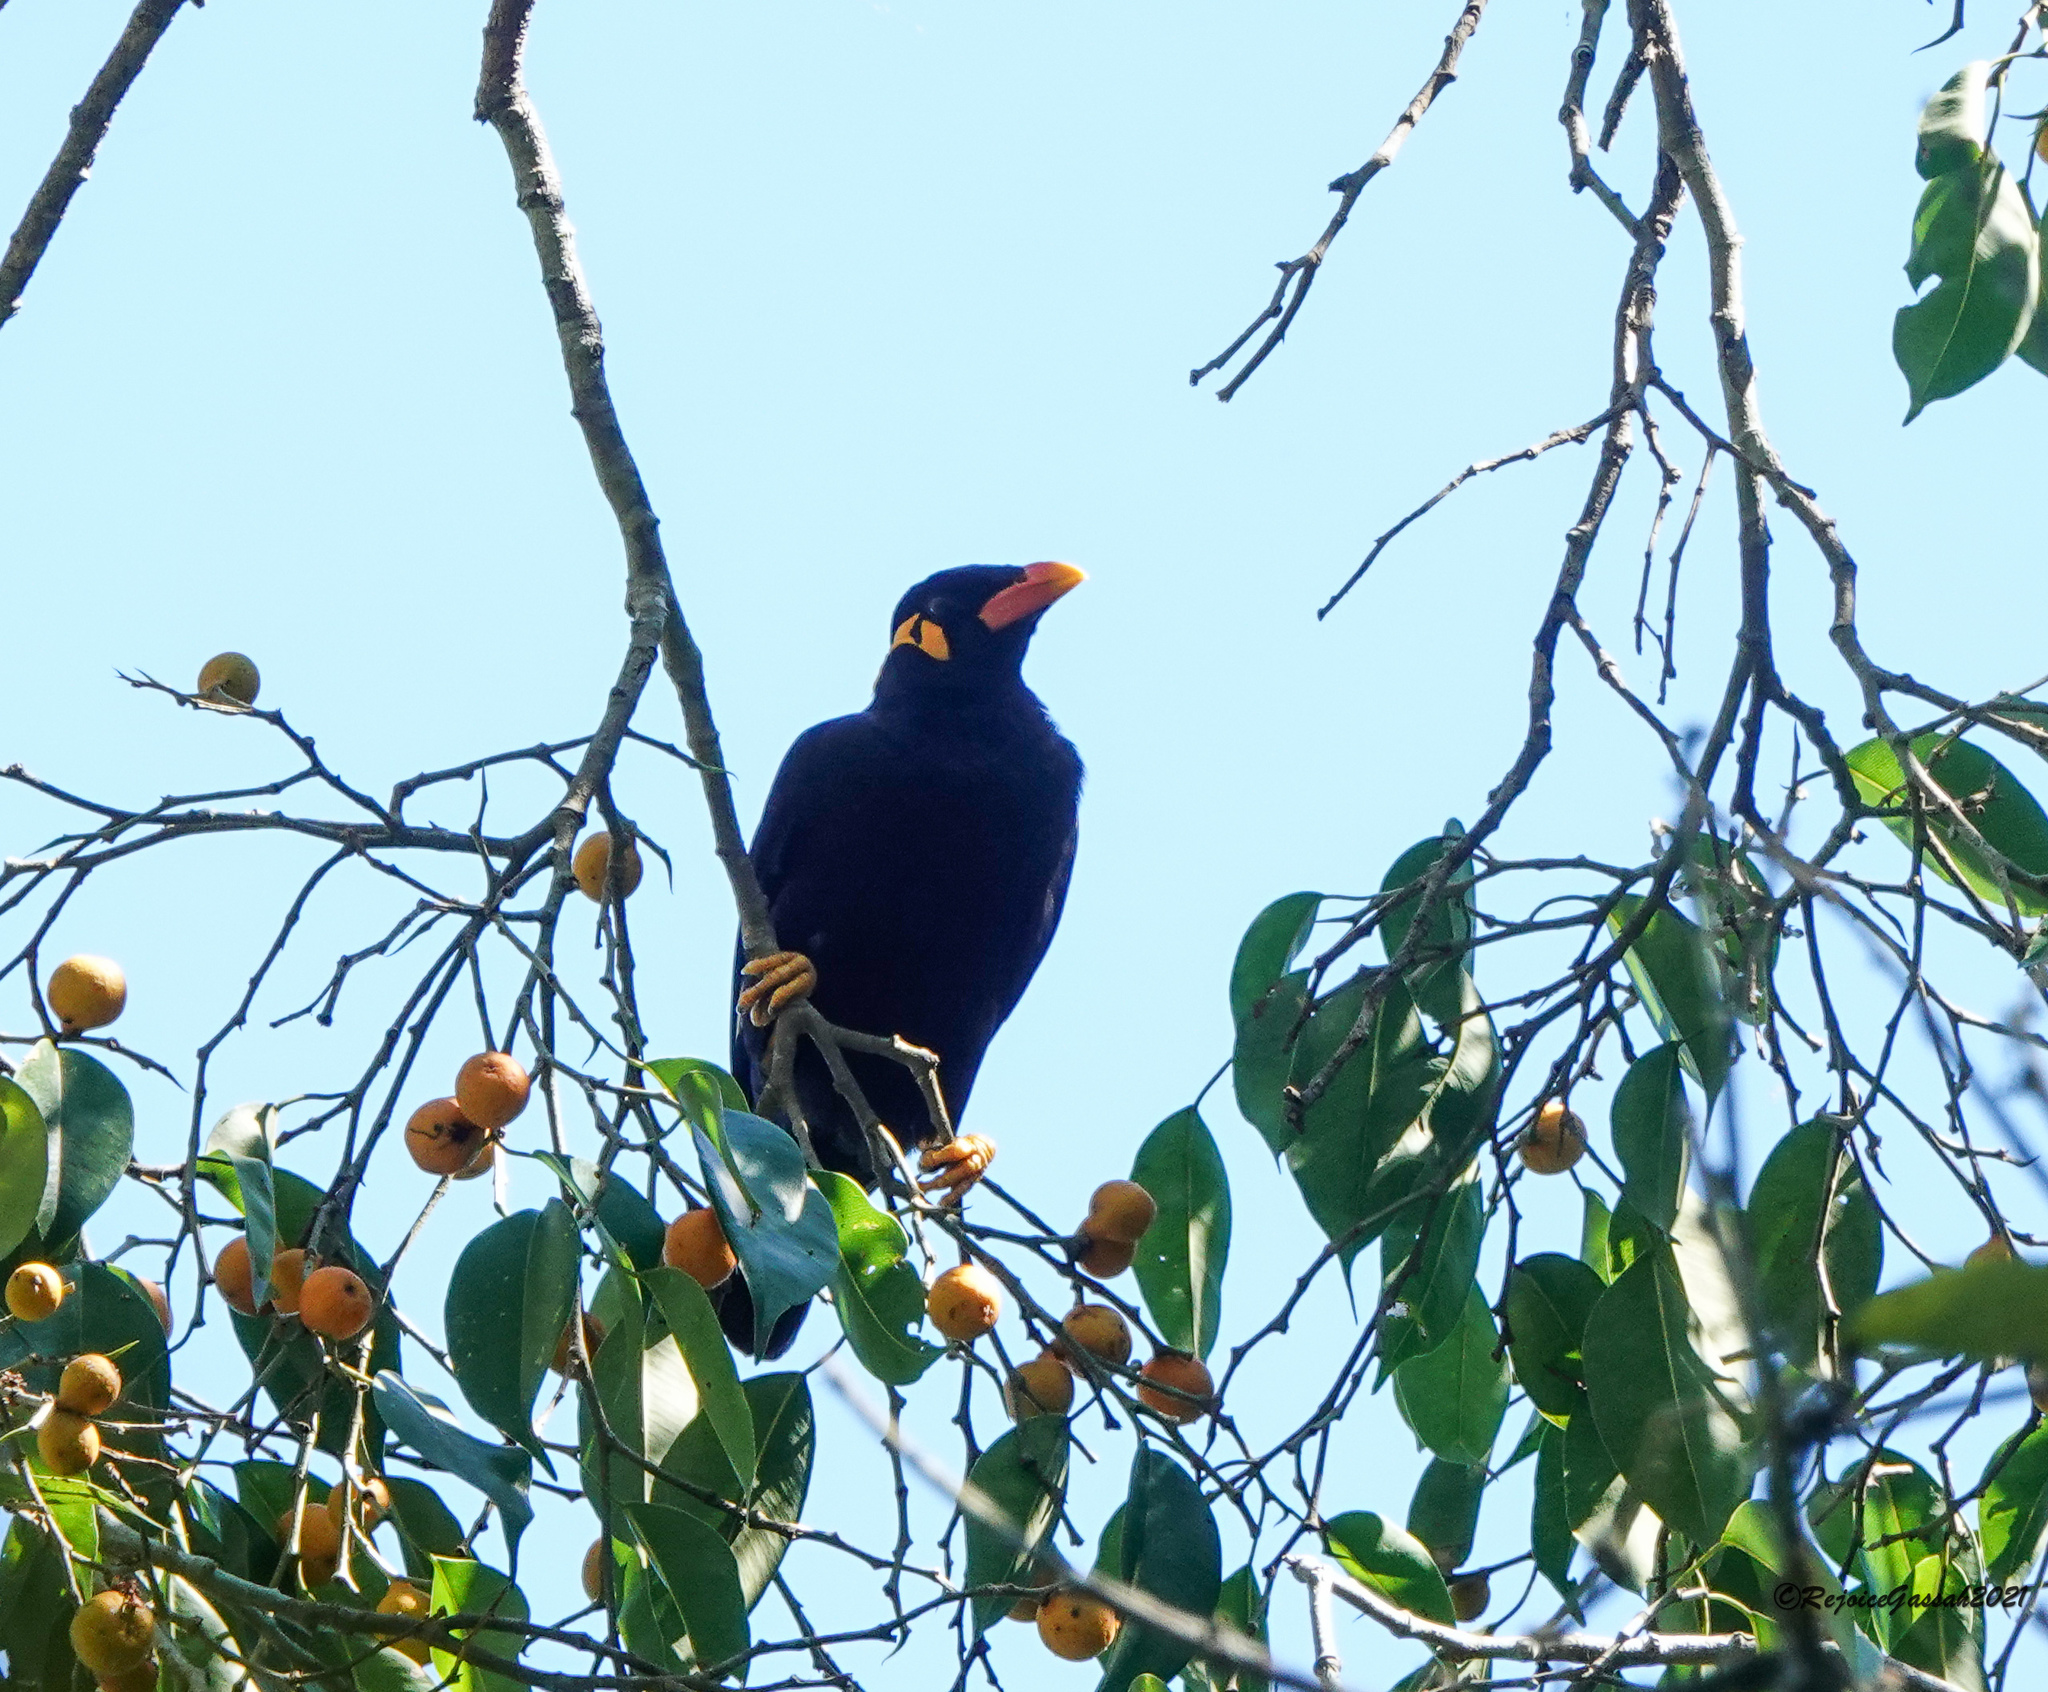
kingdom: Animalia
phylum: Chordata
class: Aves
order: Passeriformes
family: Sturnidae
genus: Gracula
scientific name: Gracula religiosa
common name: Common hill myna
